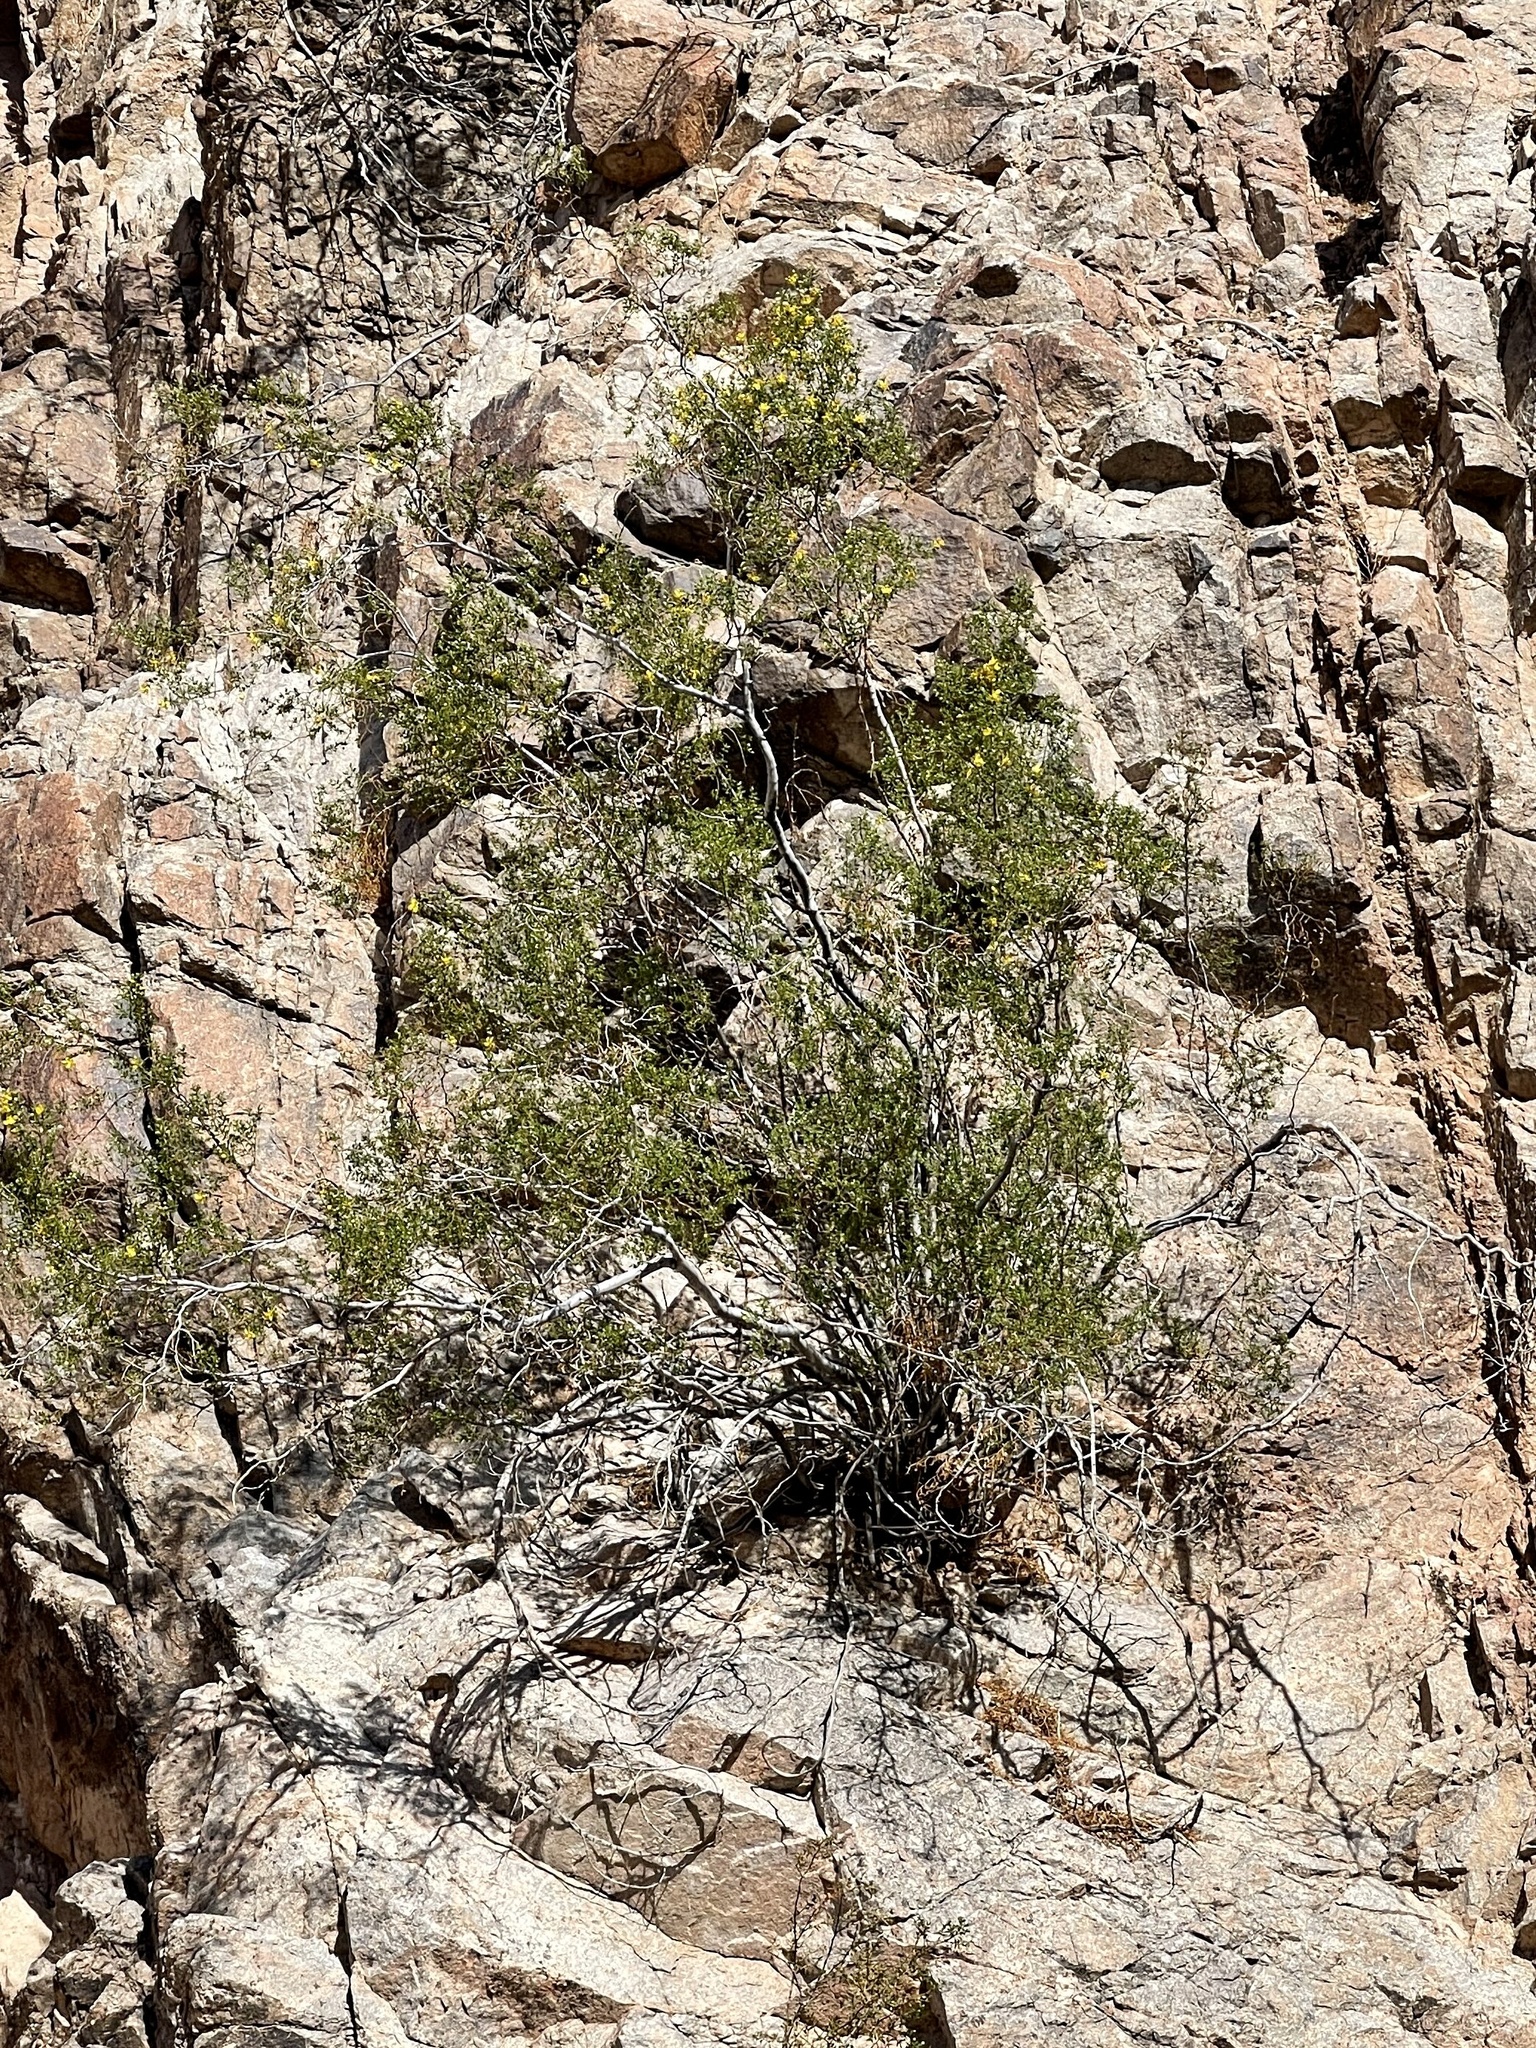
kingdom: Plantae
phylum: Tracheophyta
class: Magnoliopsida
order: Zygophyllales
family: Zygophyllaceae
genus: Larrea
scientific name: Larrea tridentata
